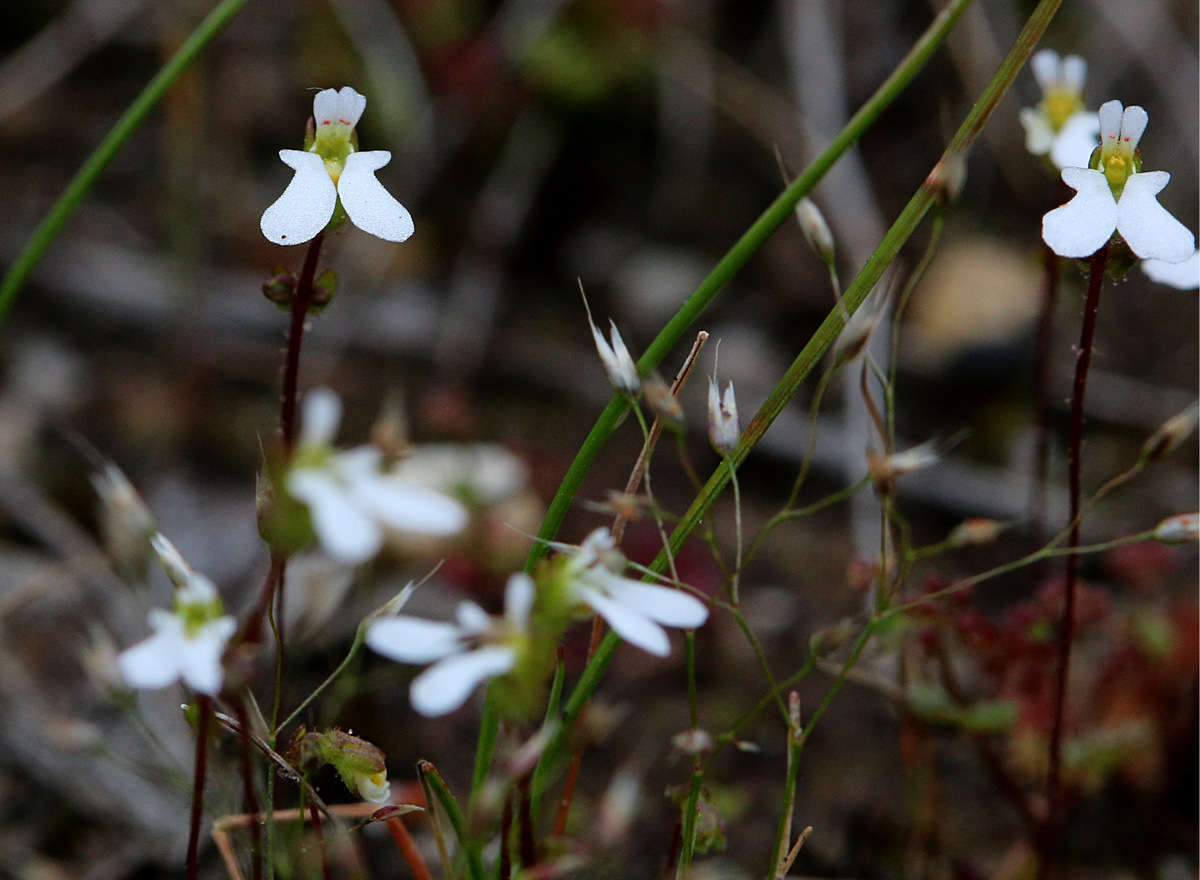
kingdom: Plantae
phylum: Tracheophyta
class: Magnoliopsida
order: Asterales
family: Stylidiaceae
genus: Stylidium
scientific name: Stylidium perpusillum
